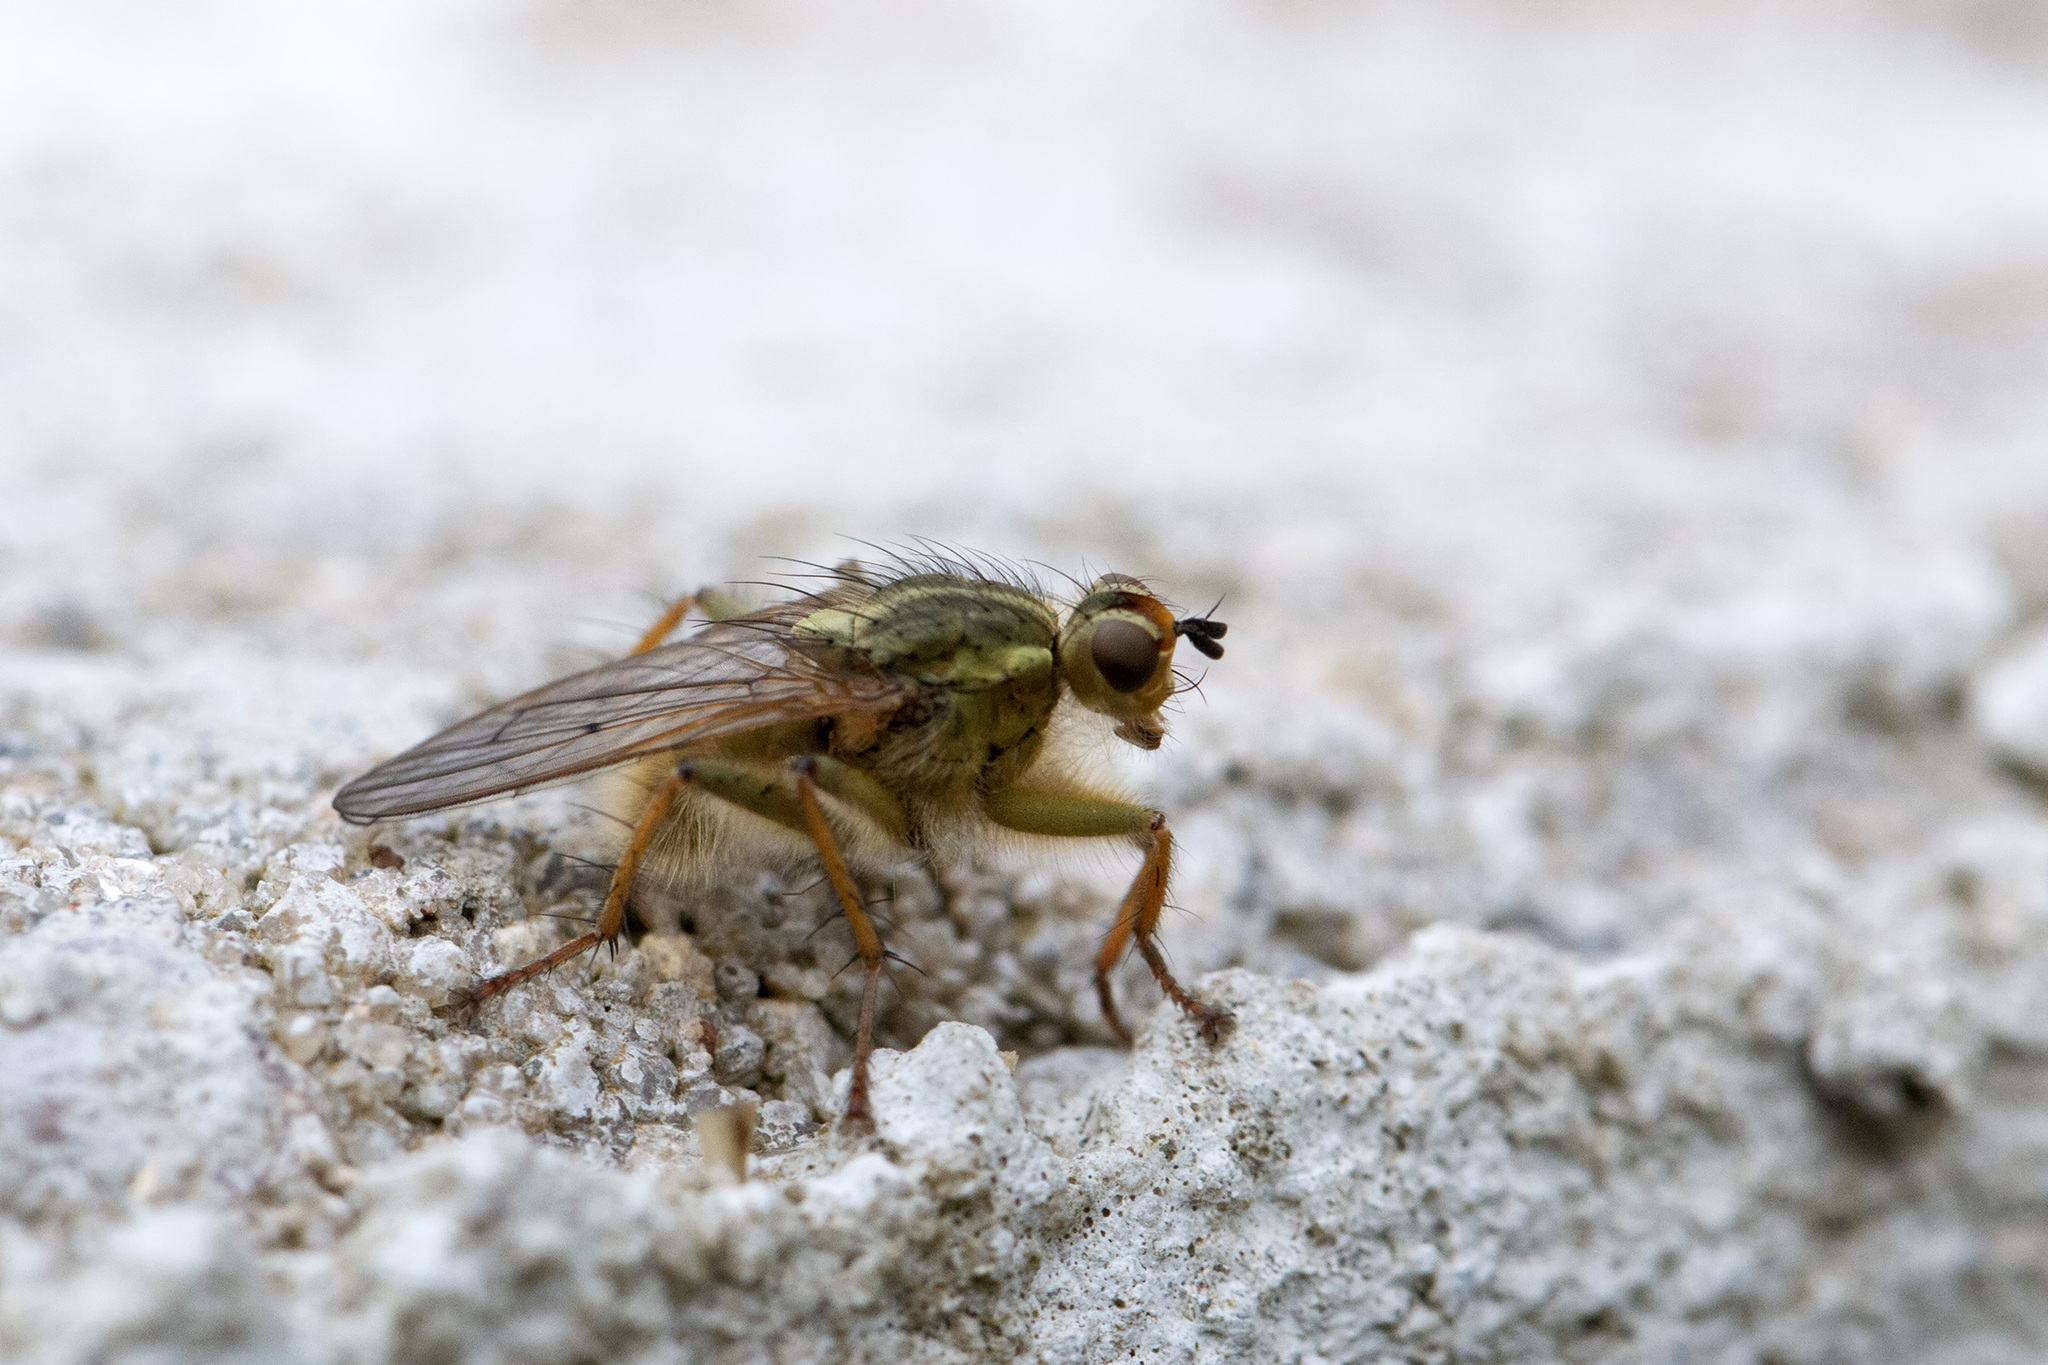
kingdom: Animalia
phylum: Arthropoda
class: Insecta
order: Diptera
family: Scathophagidae
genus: Scathophaga
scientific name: Scathophaga stercoraria
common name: Yellow dung fly
